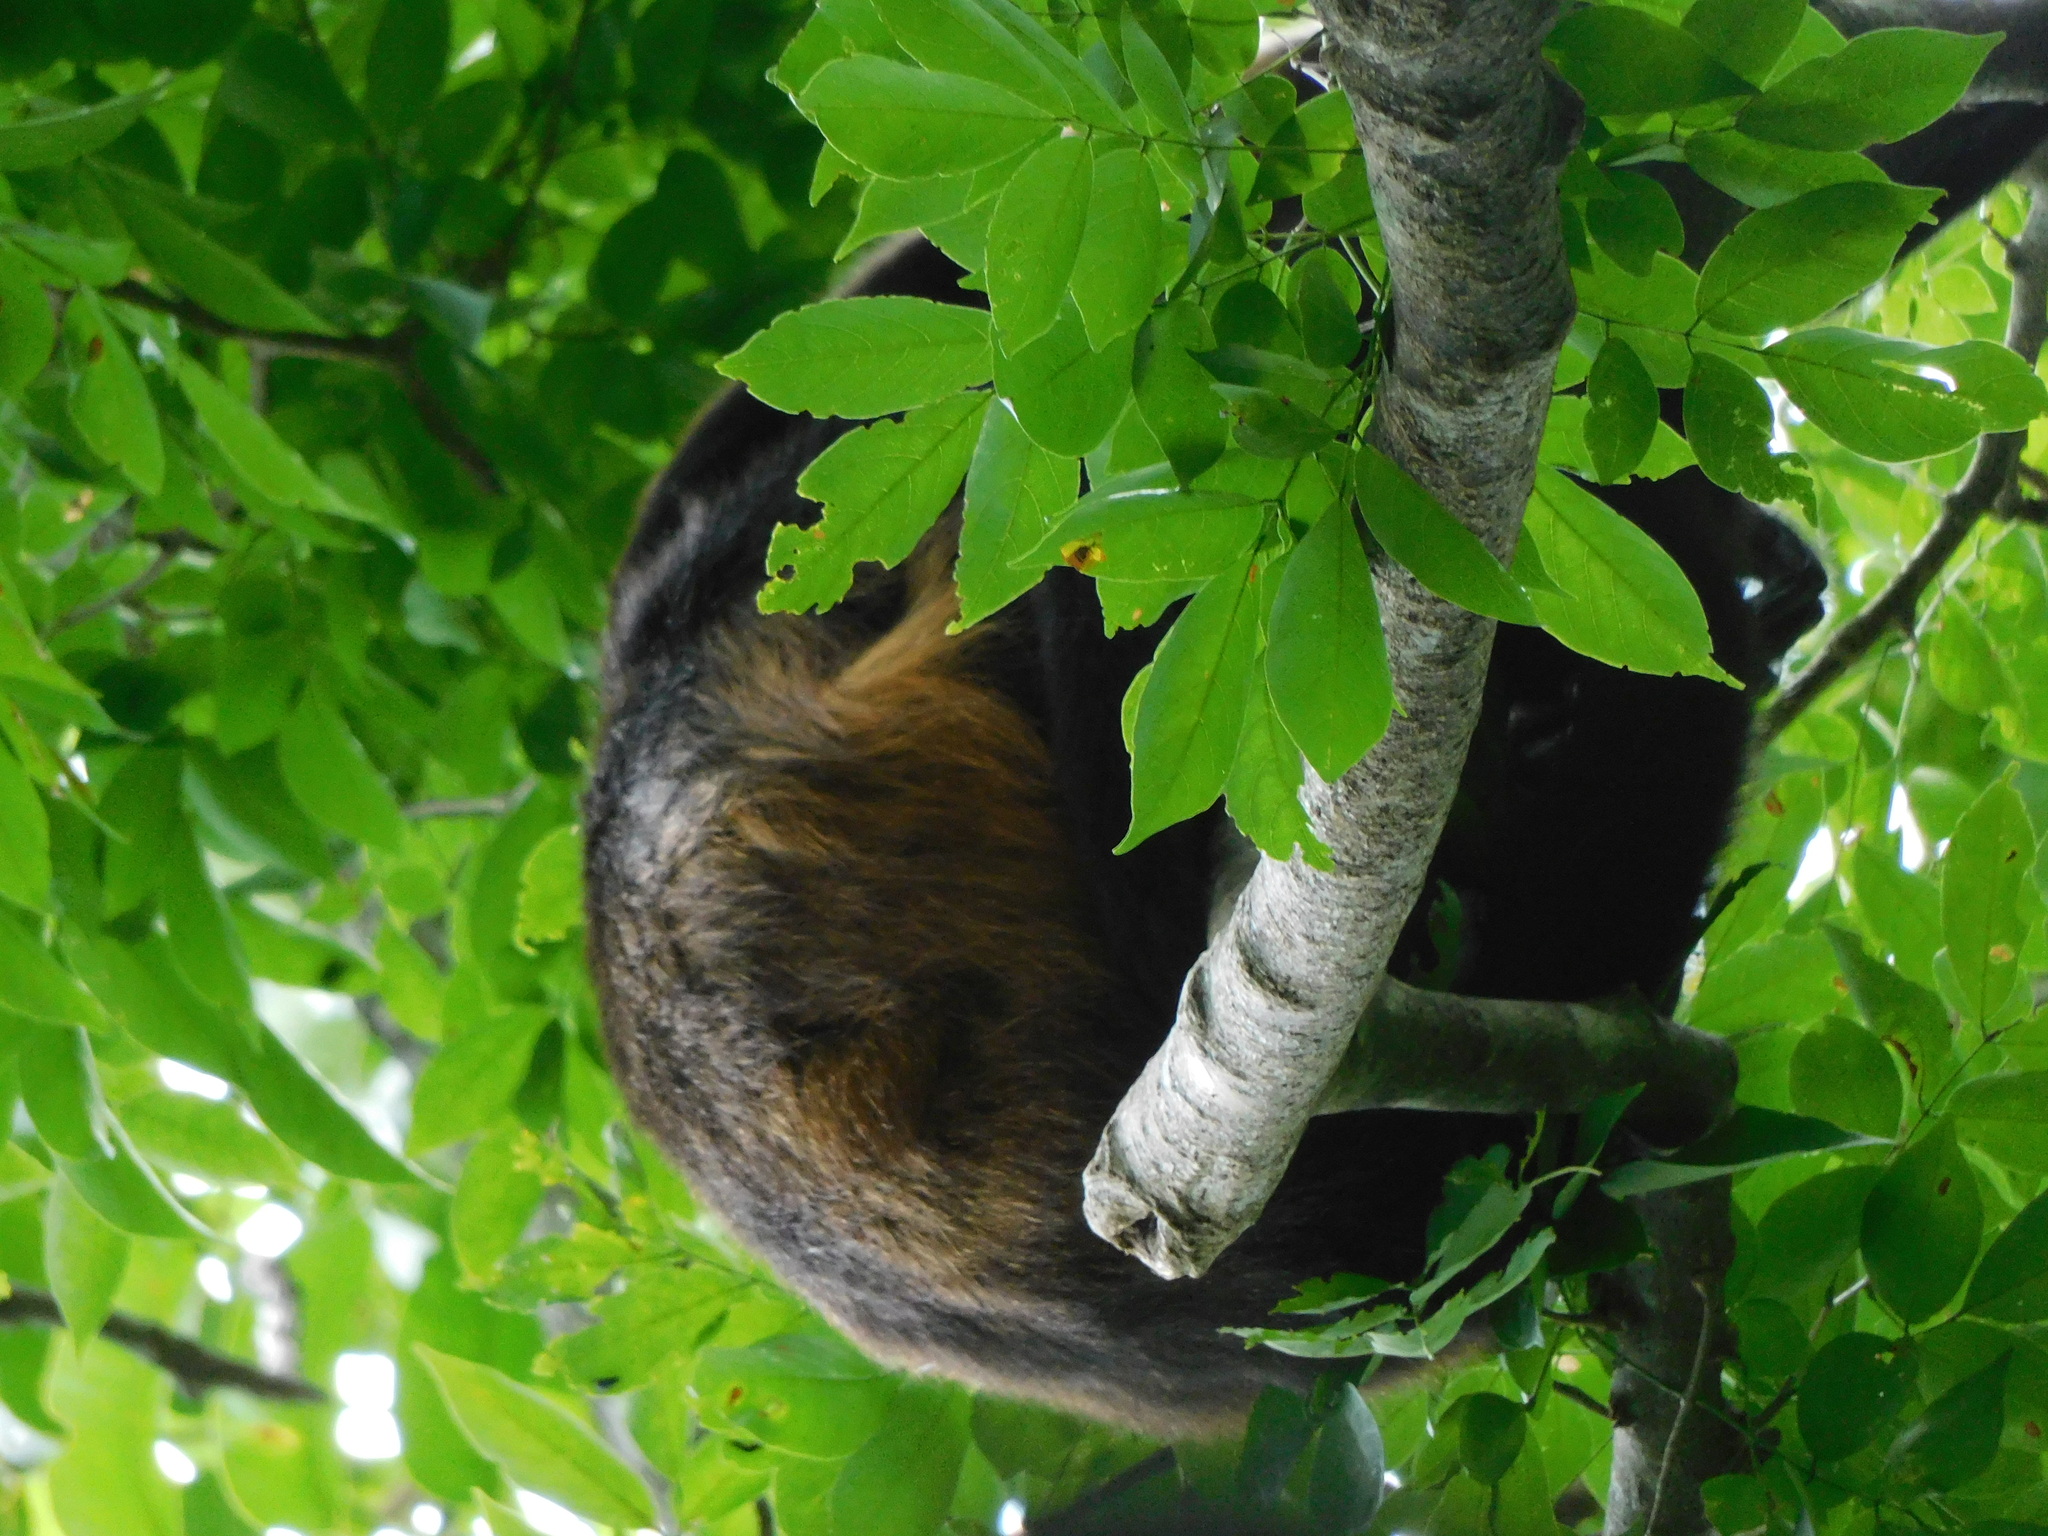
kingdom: Animalia
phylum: Chordata
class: Mammalia
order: Primates
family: Atelidae
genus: Alouatta
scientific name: Alouatta palliata
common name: Mantled howler
